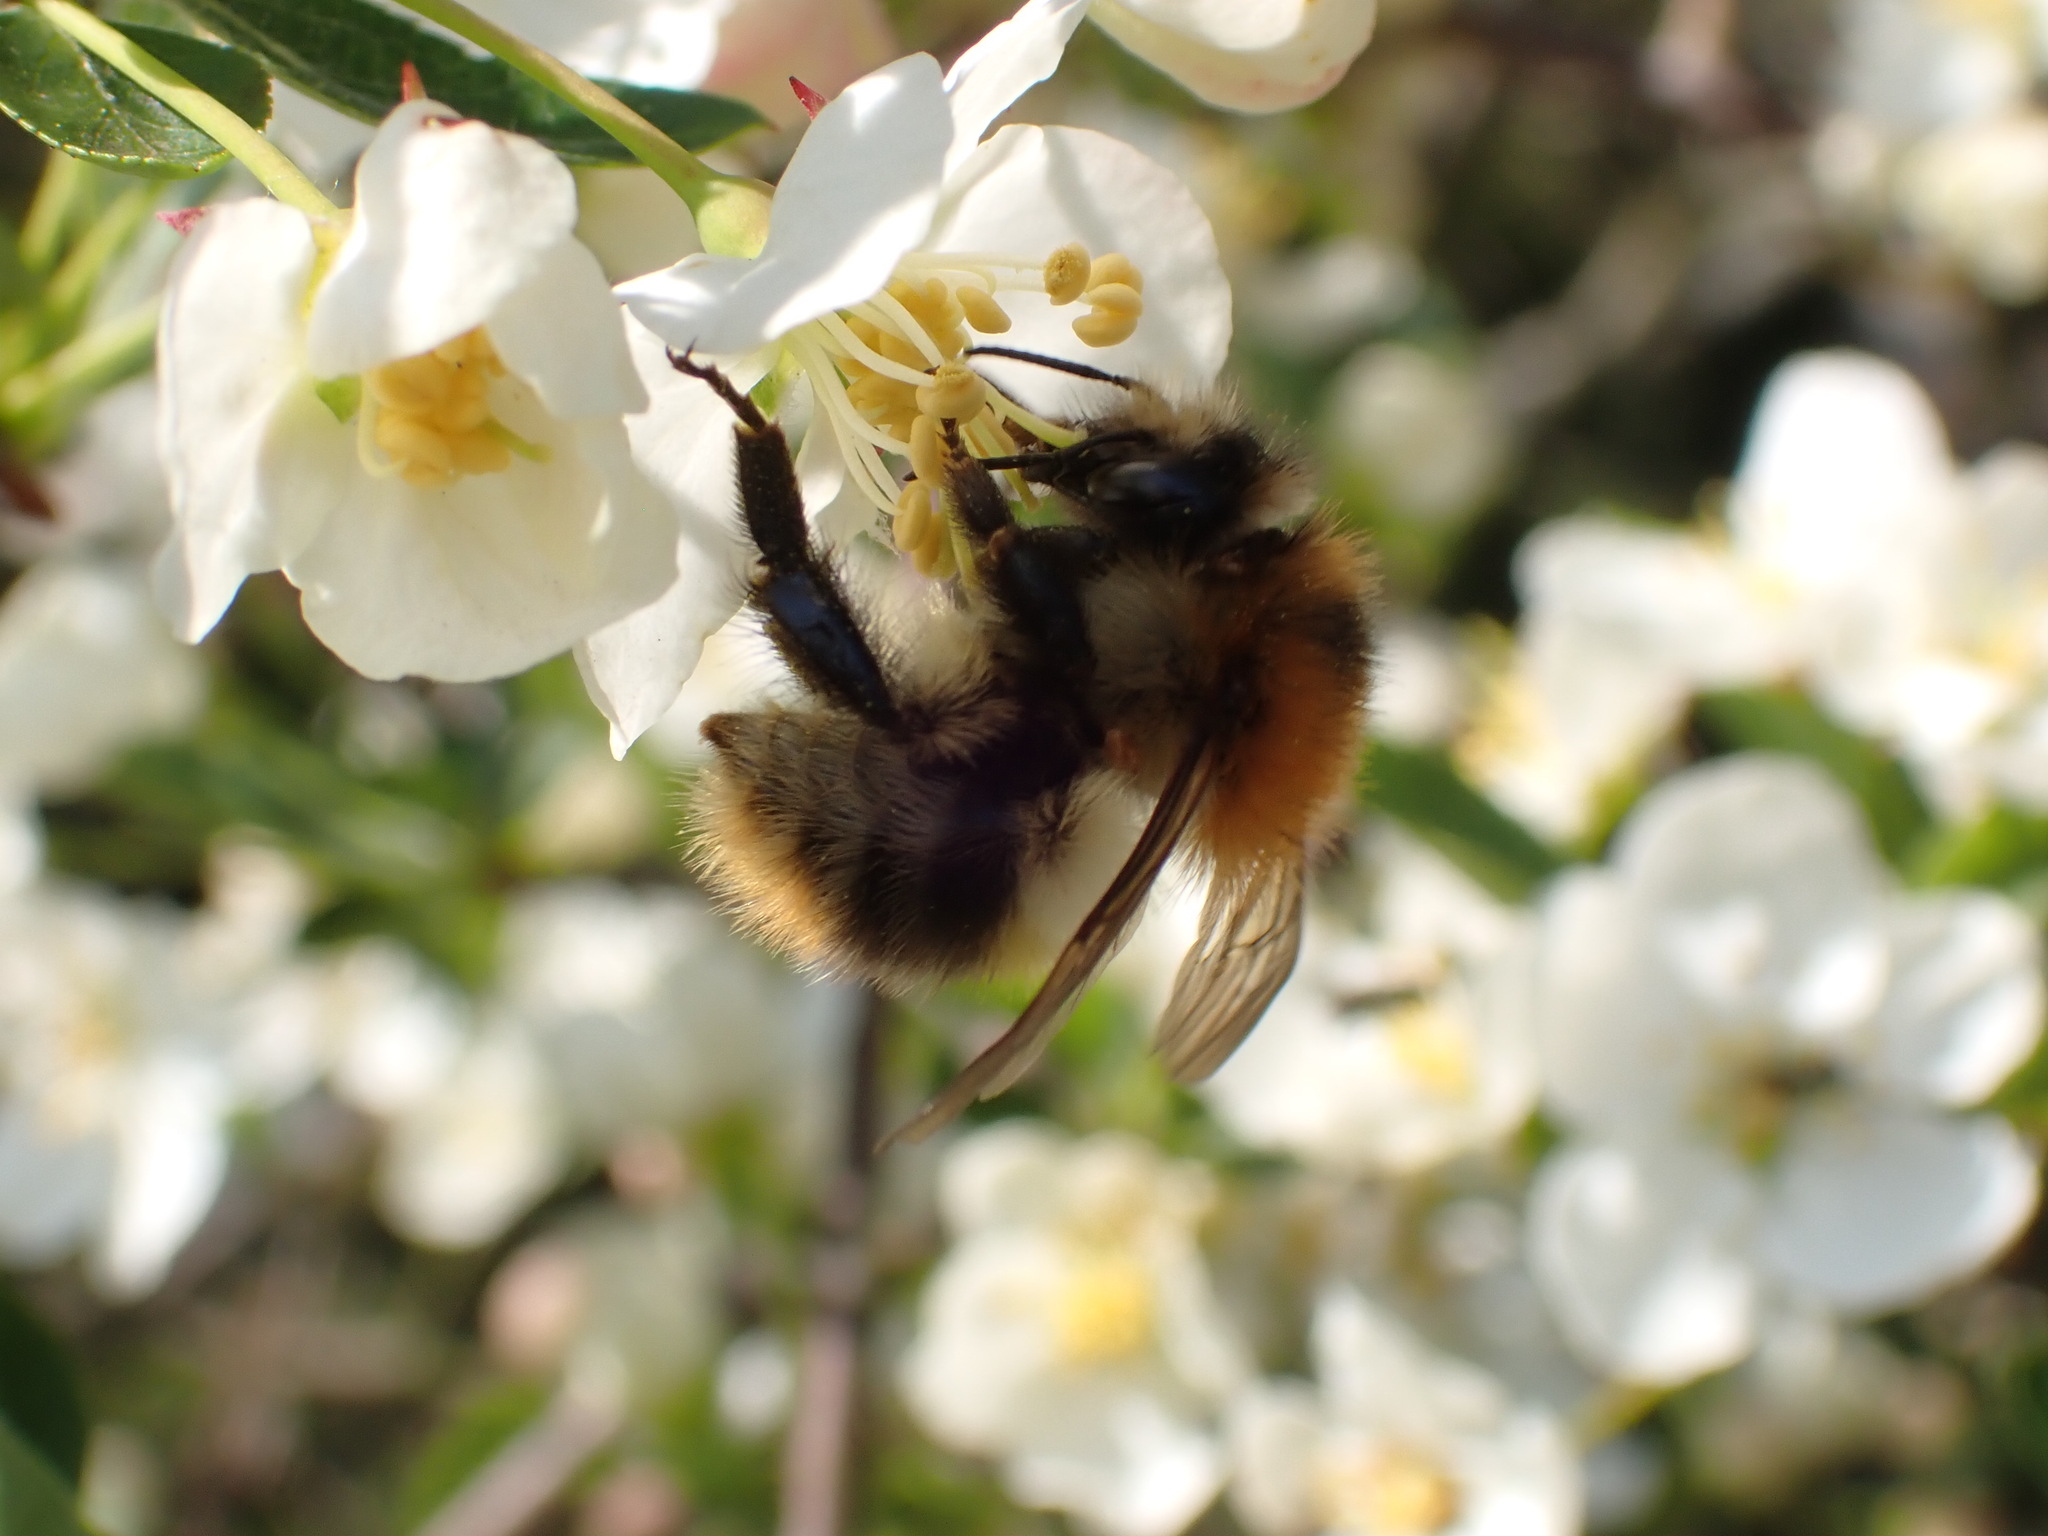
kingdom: Animalia
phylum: Arthropoda
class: Insecta
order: Hymenoptera
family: Apidae
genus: Bombus
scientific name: Bombus pascuorum
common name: Common carder bee
